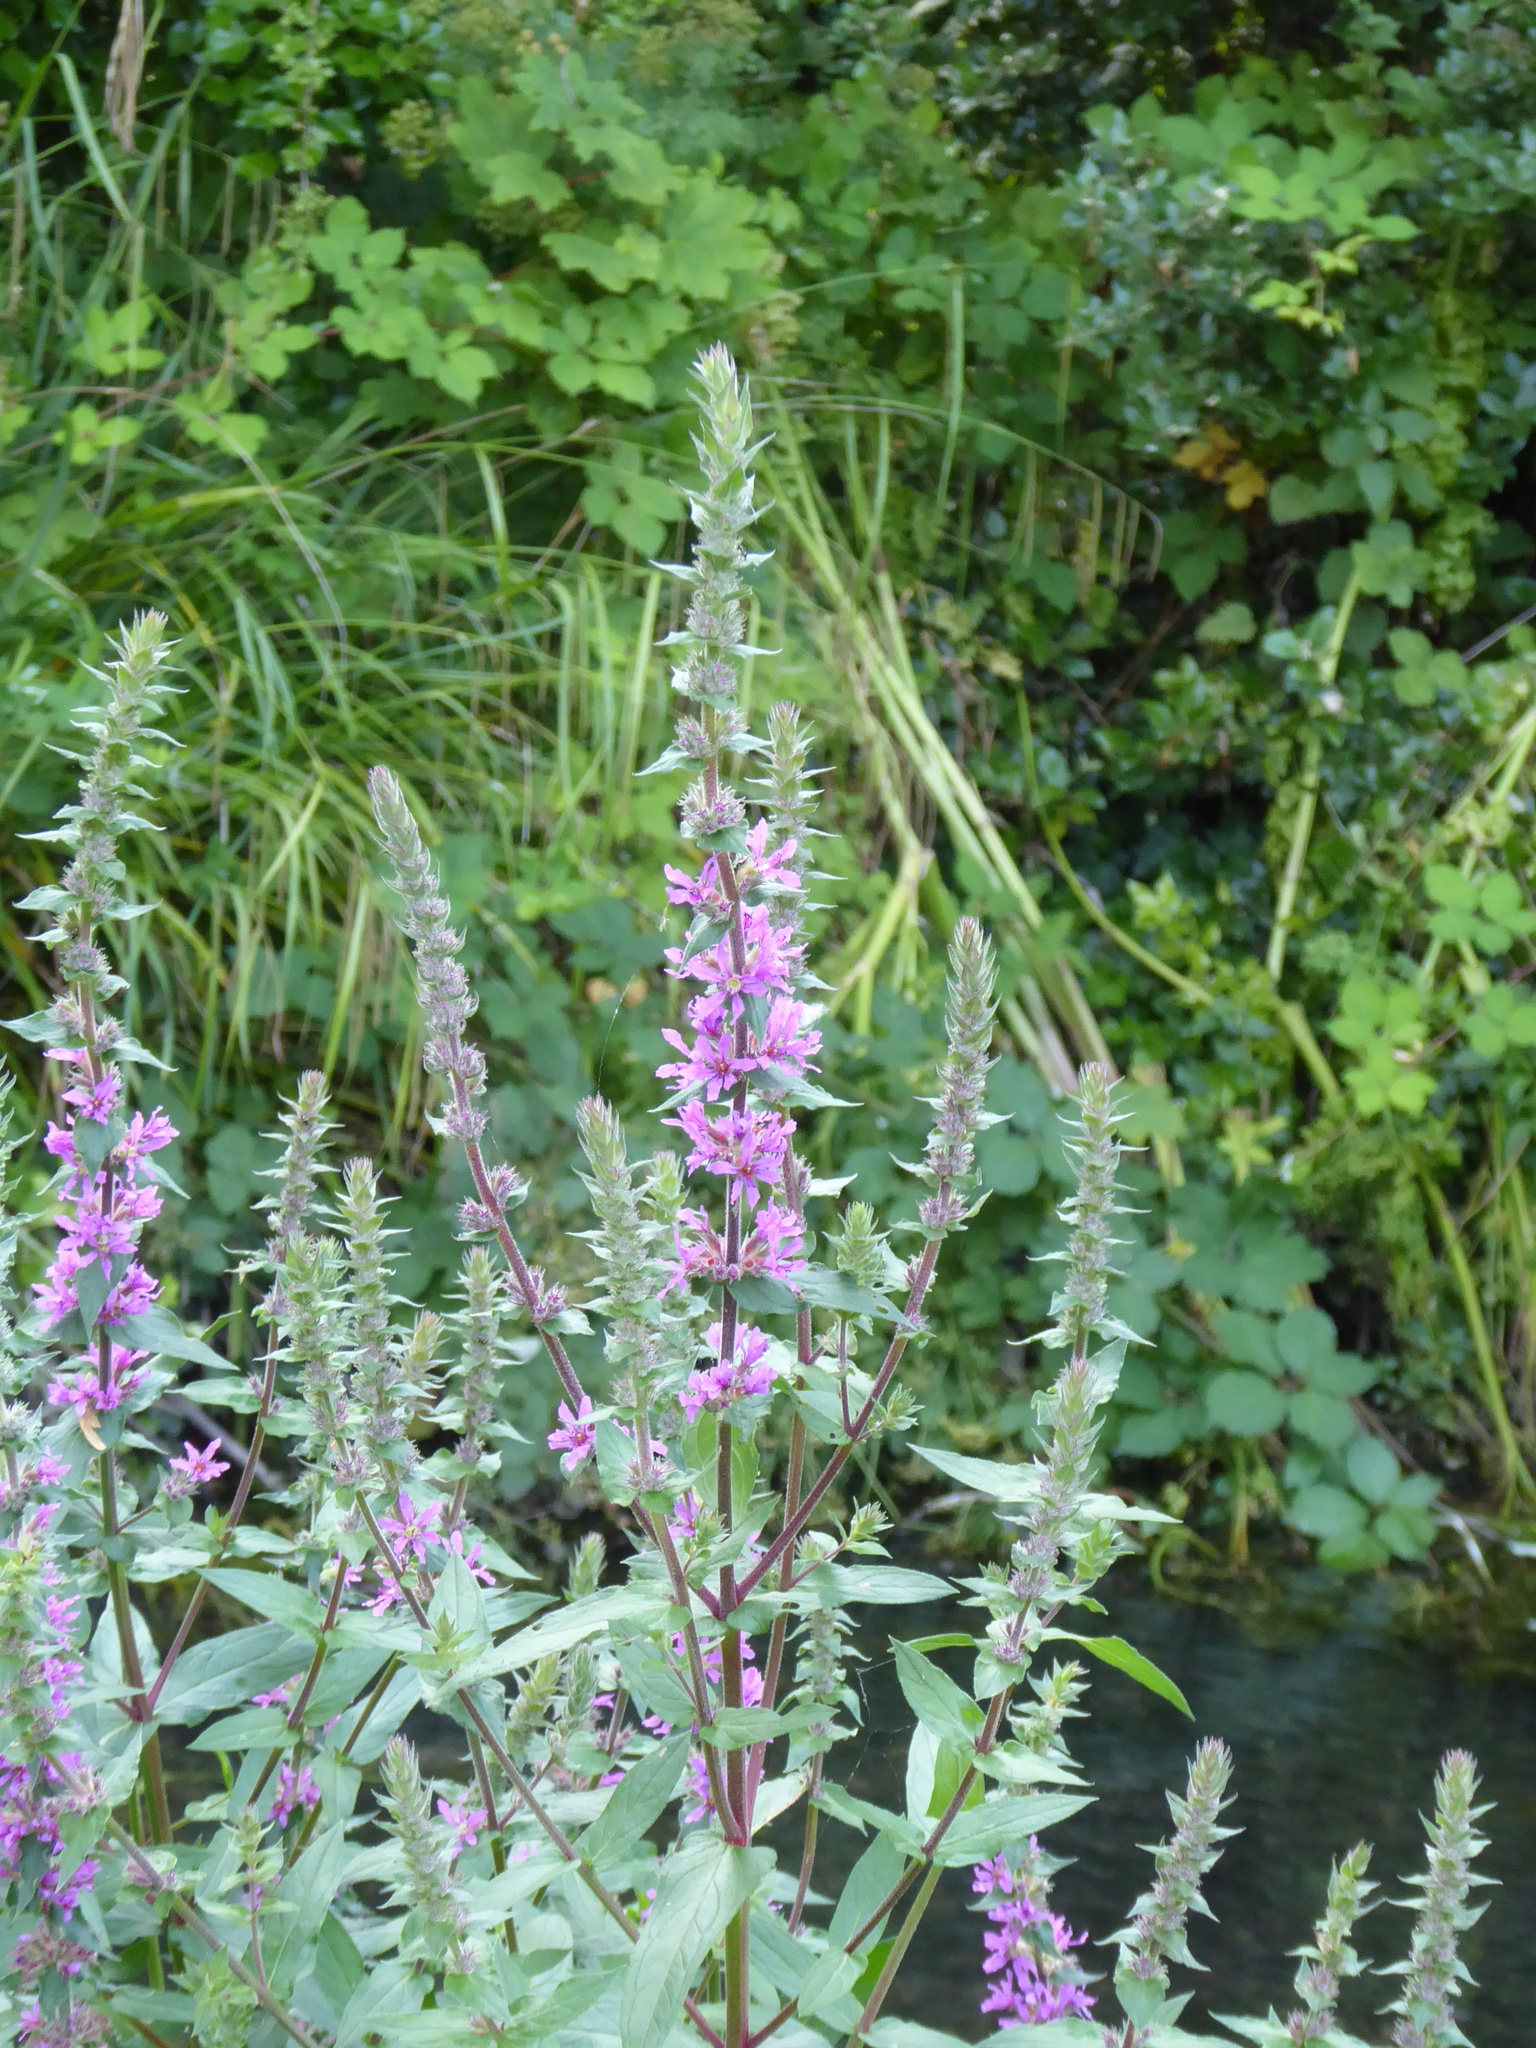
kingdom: Plantae
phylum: Tracheophyta
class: Magnoliopsida
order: Myrtales
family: Lythraceae
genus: Lythrum
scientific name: Lythrum salicaria
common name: Purple loosestrife
